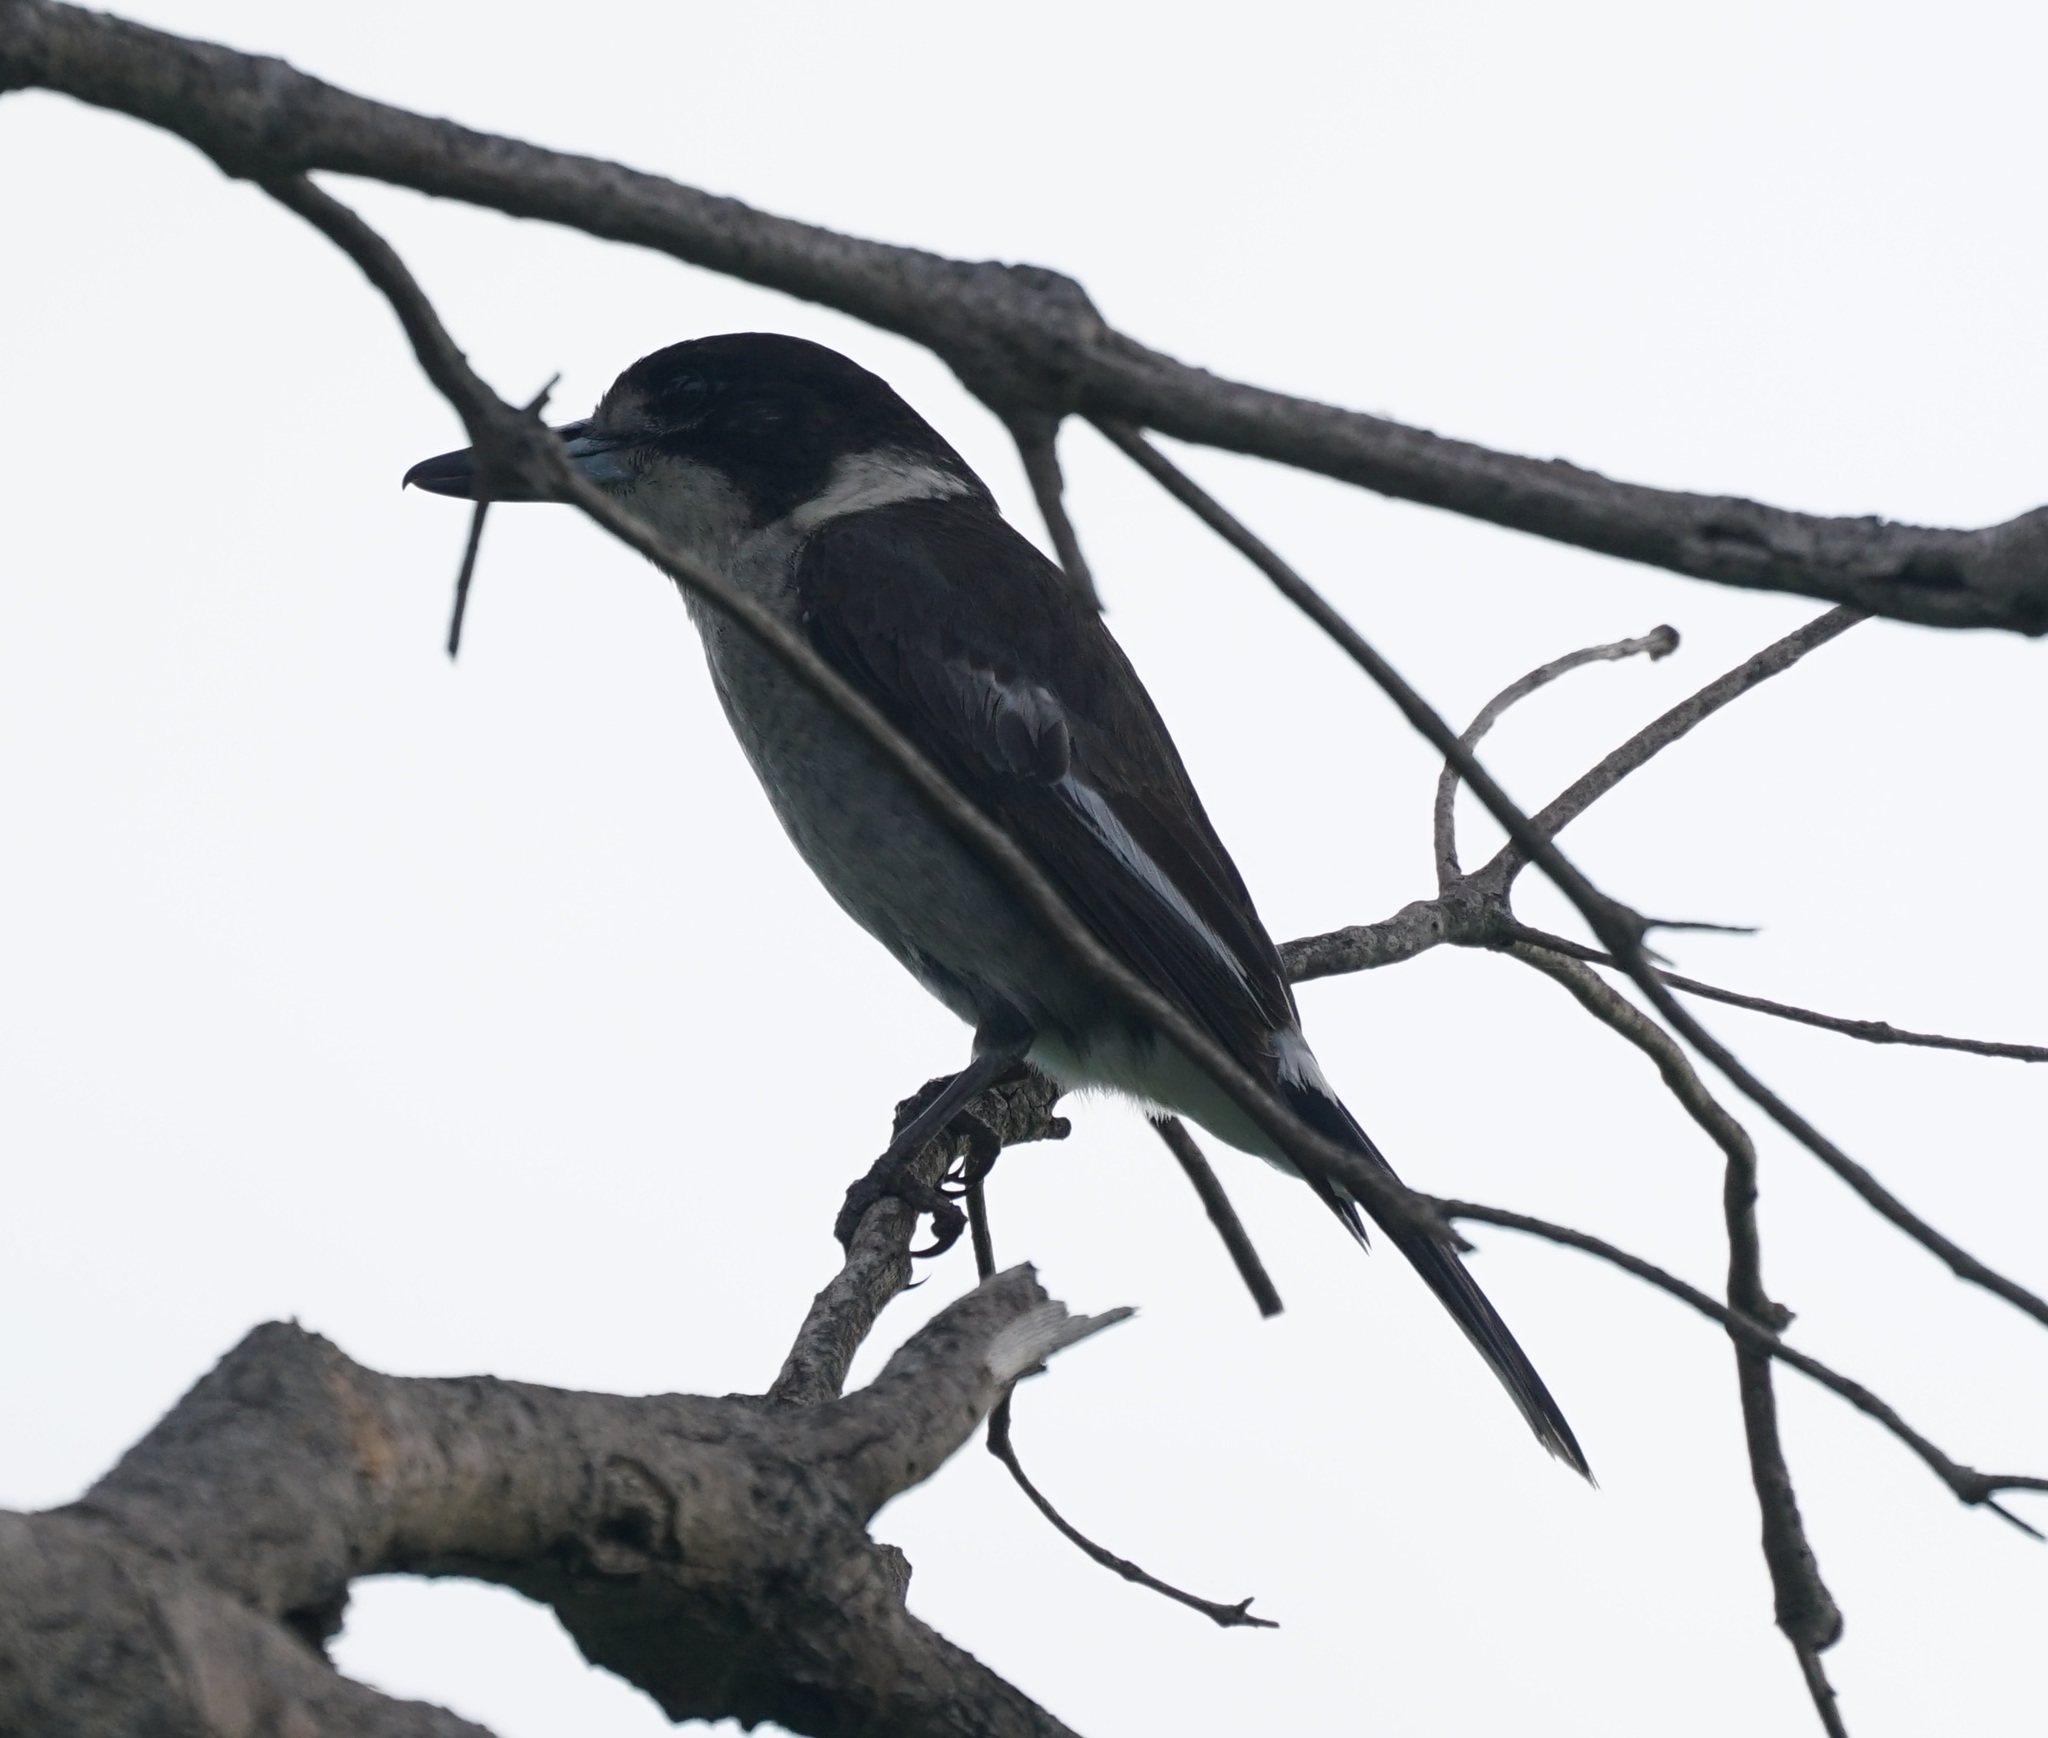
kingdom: Animalia
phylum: Chordata
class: Aves
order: Passeriformes
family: Cracticidae
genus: Cracticus
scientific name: Cracticus torquatus
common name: Grey butcherbird
